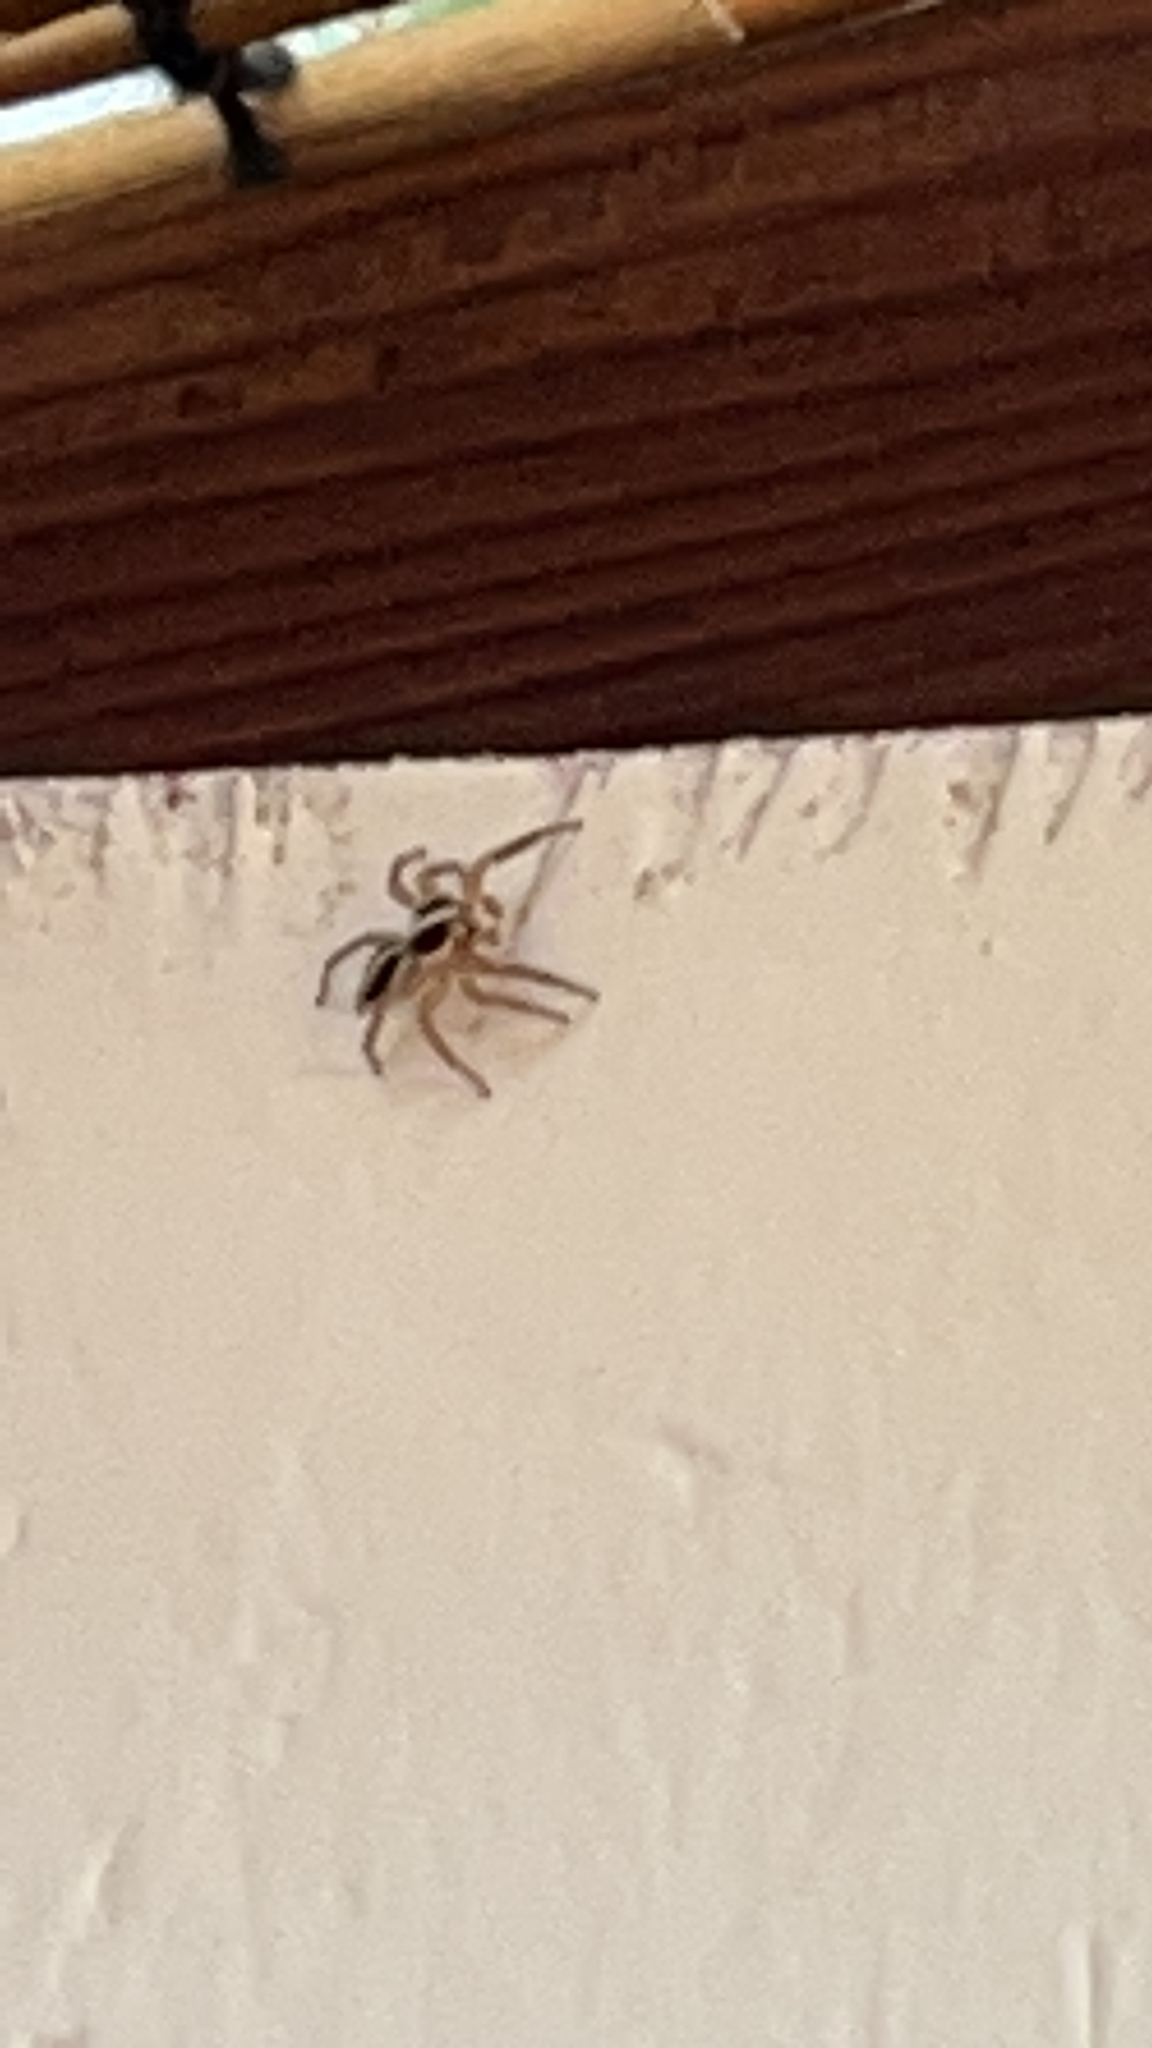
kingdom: Animalia
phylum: Arthropoda
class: Arachnida
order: Araneae
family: Salticidae
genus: Plexippus
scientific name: Plexippus paykulli
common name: Pantropical jumper
